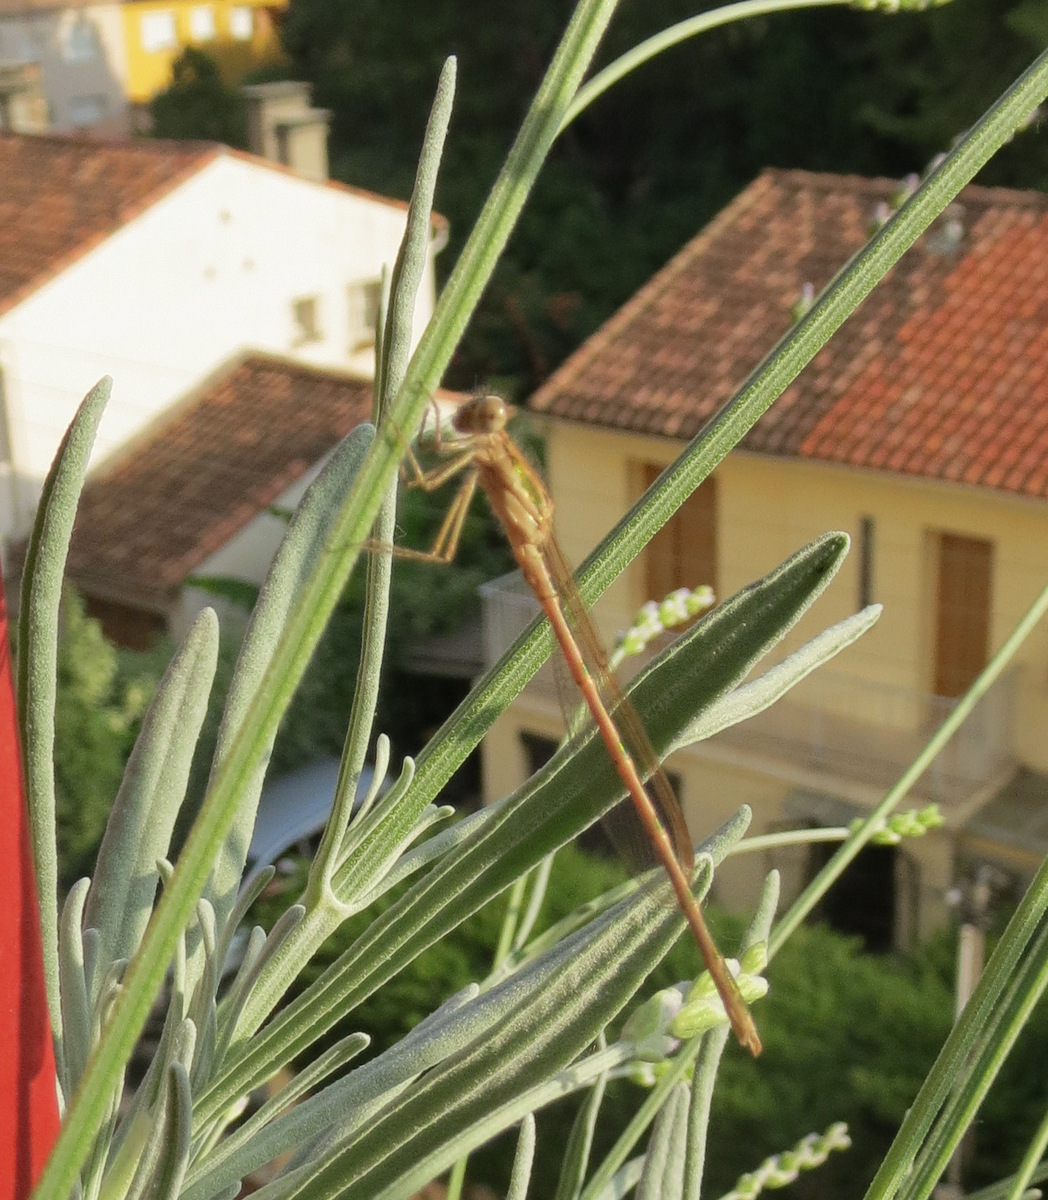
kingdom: Animalia
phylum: Arthropoda
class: Insecta
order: Odonata
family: Lestidae
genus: Sympecma
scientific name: Sympecma fusca
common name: Common winter damsel
